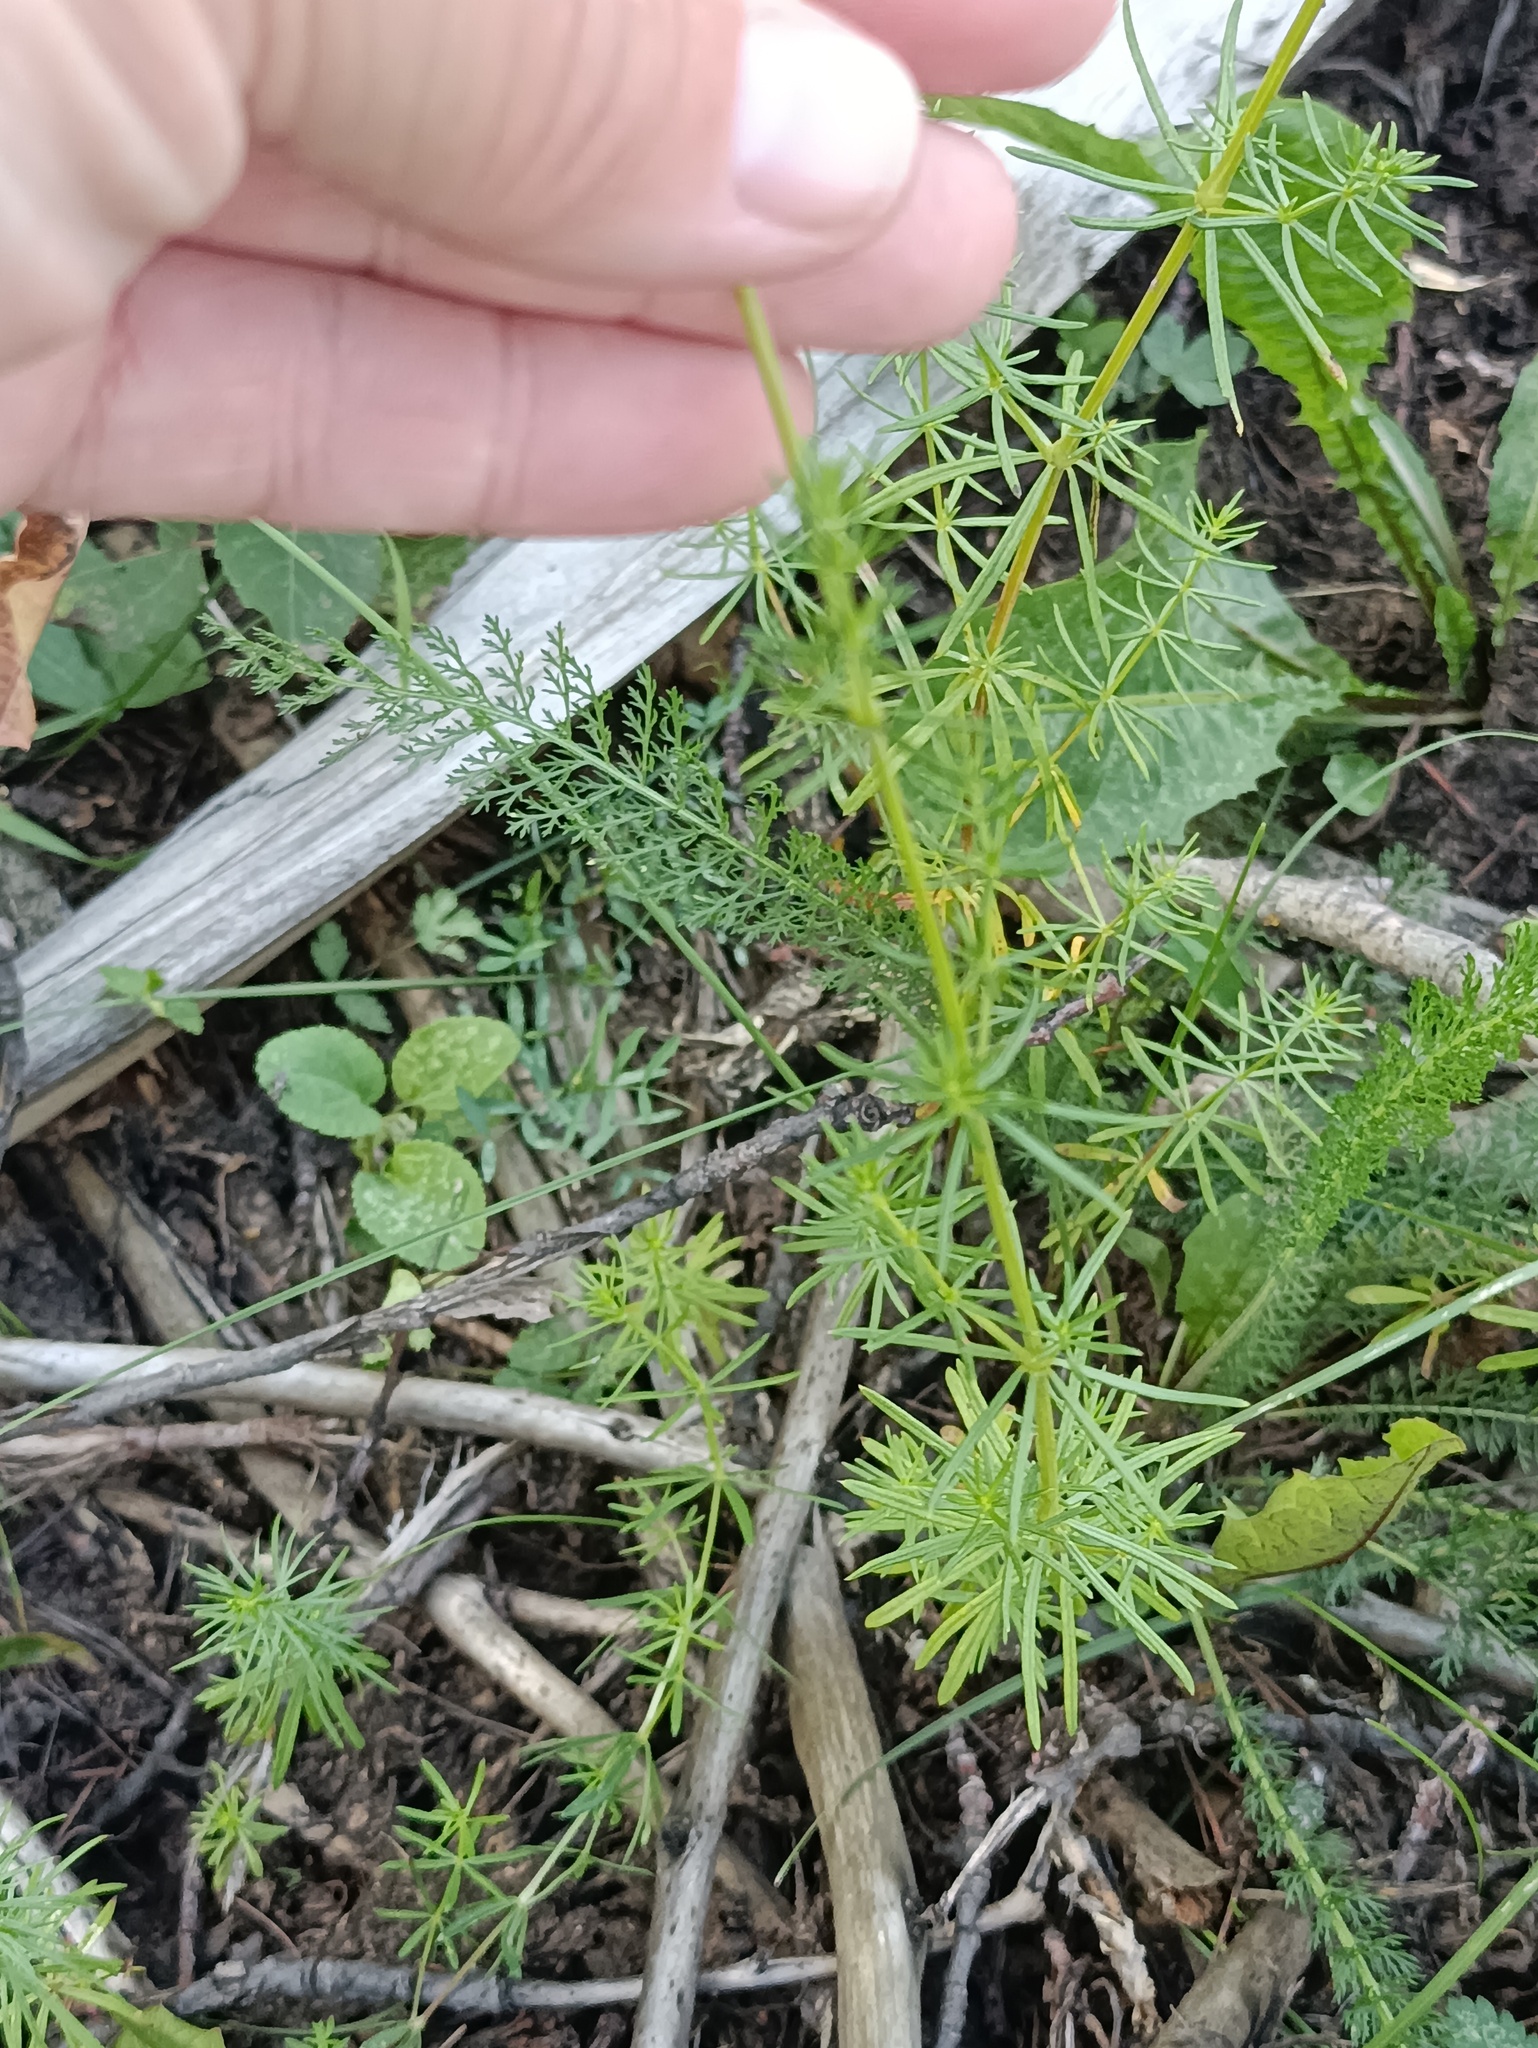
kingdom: Plantae
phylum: Tracheophyta
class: Magnoliopsida
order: Gentianales
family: Rubiaceae
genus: Galium
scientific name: Galium verum
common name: Lady's bedstraw
